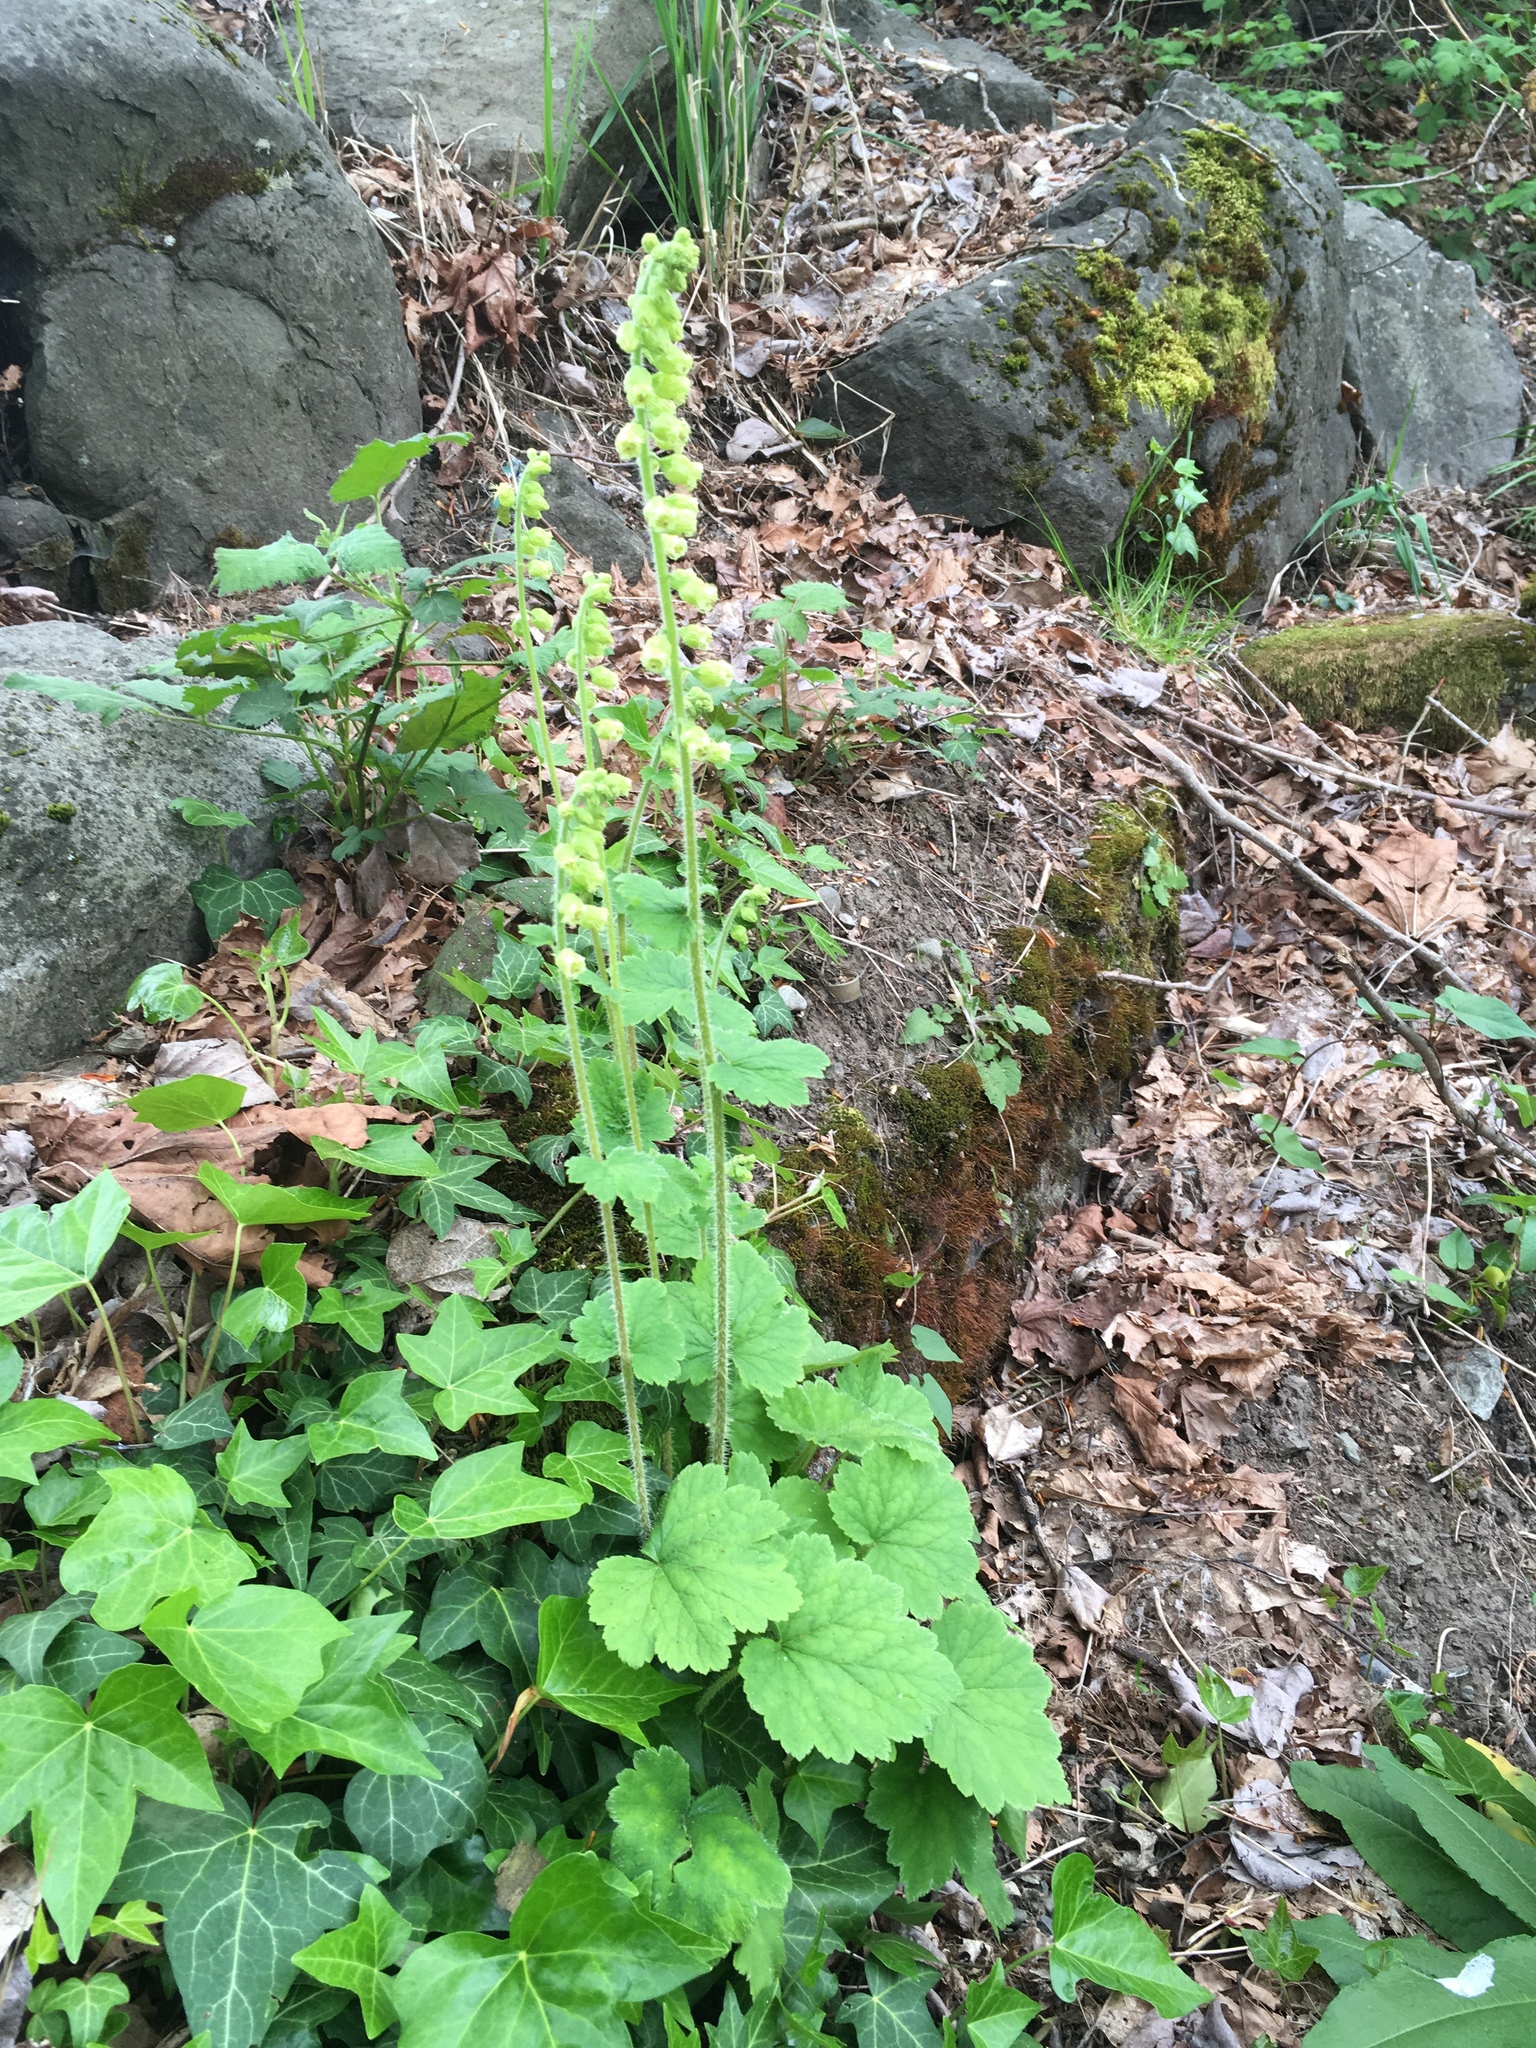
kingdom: Plantae
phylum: Tracheophyta
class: Magnoliopsida
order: Saxifragales
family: Saxifragaceae
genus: Tellima
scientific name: Tellima grandiflora
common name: Fringecups
